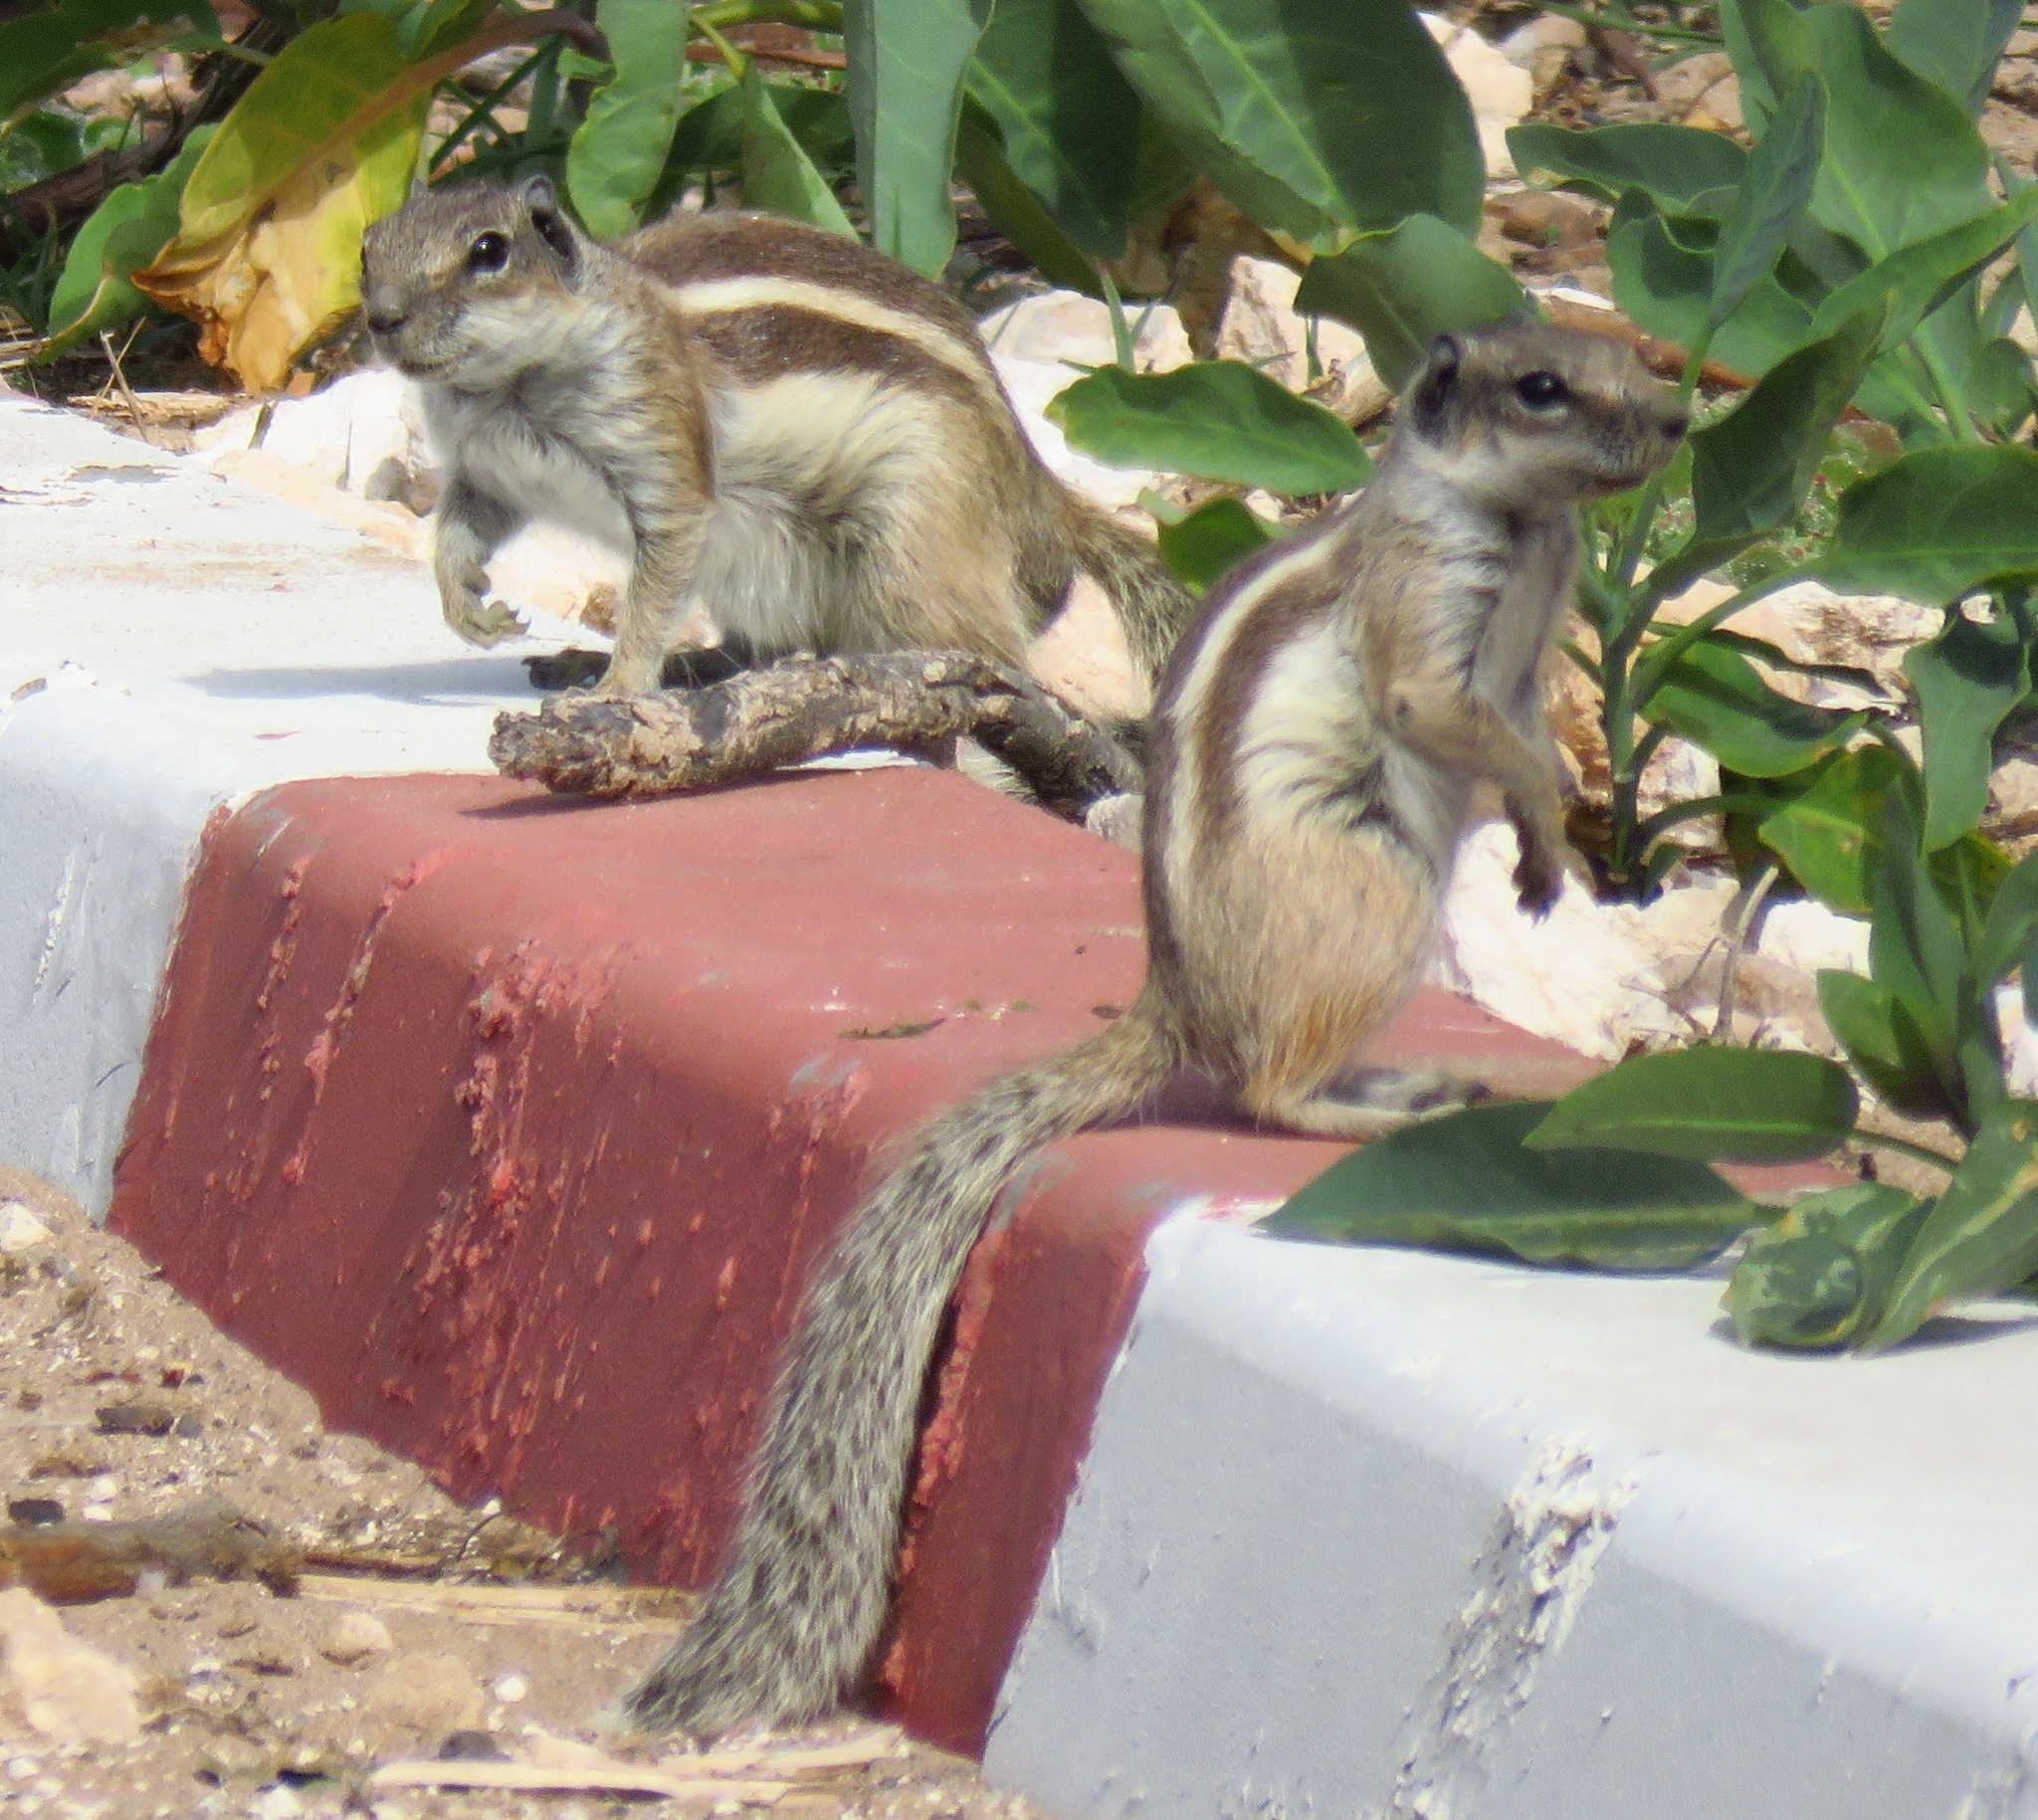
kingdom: Animalia
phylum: Chordata
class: Mammalia
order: Rodentia
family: Sciuridae
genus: Atlantoxerus
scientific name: Atlantoxerus getulus
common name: Barbary ground squirrel
